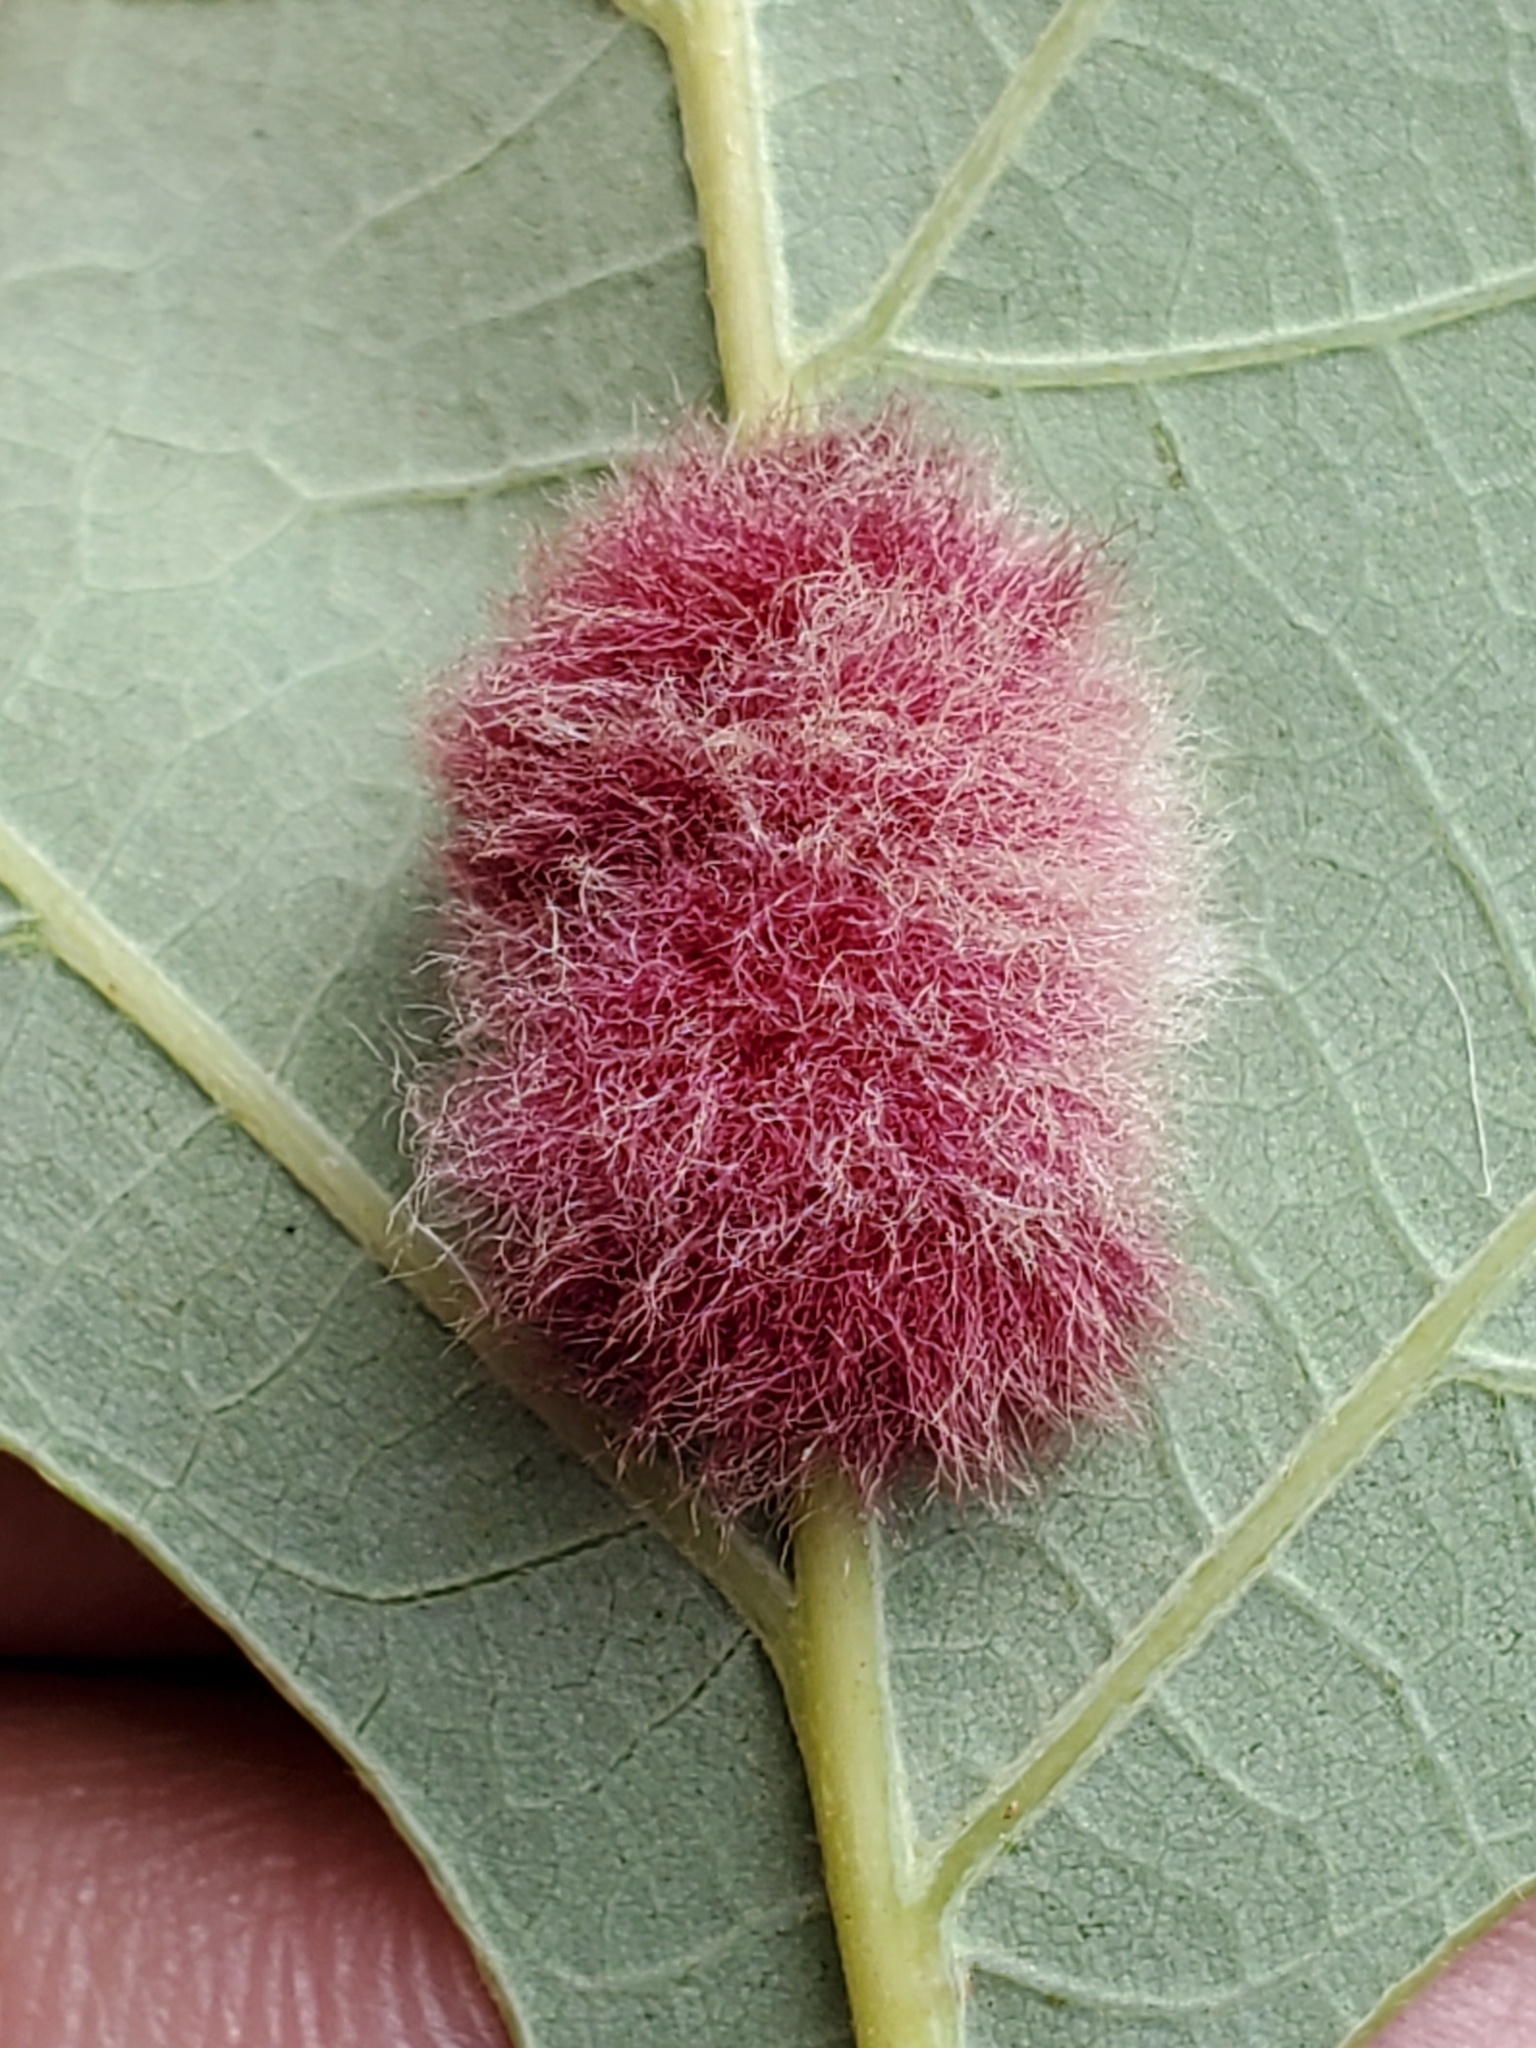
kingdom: Animalia
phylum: Arthropoda
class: Insecta
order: Hymenoptera
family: Cynipidae
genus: Andricus
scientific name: Andricus Druon ignotum
